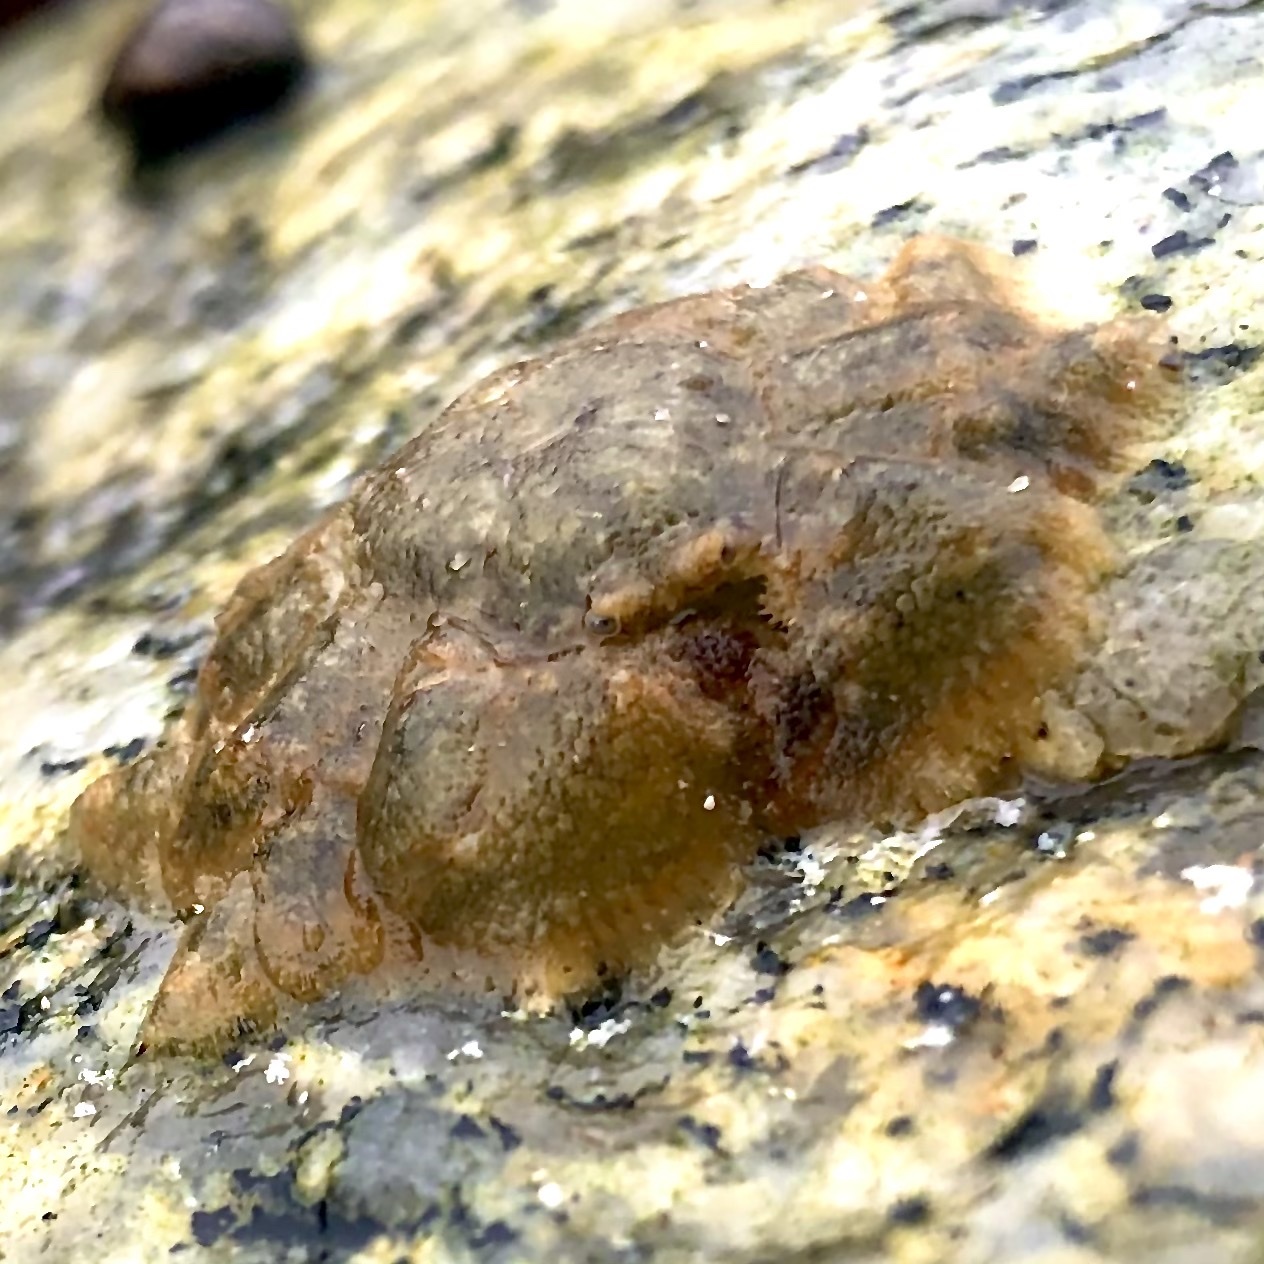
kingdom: Animalia
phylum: Arthropoda
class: Malacostraca
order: Decapoda
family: Hapalogastridae
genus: Hapalogaster
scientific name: Hapalogaster cavicauda
